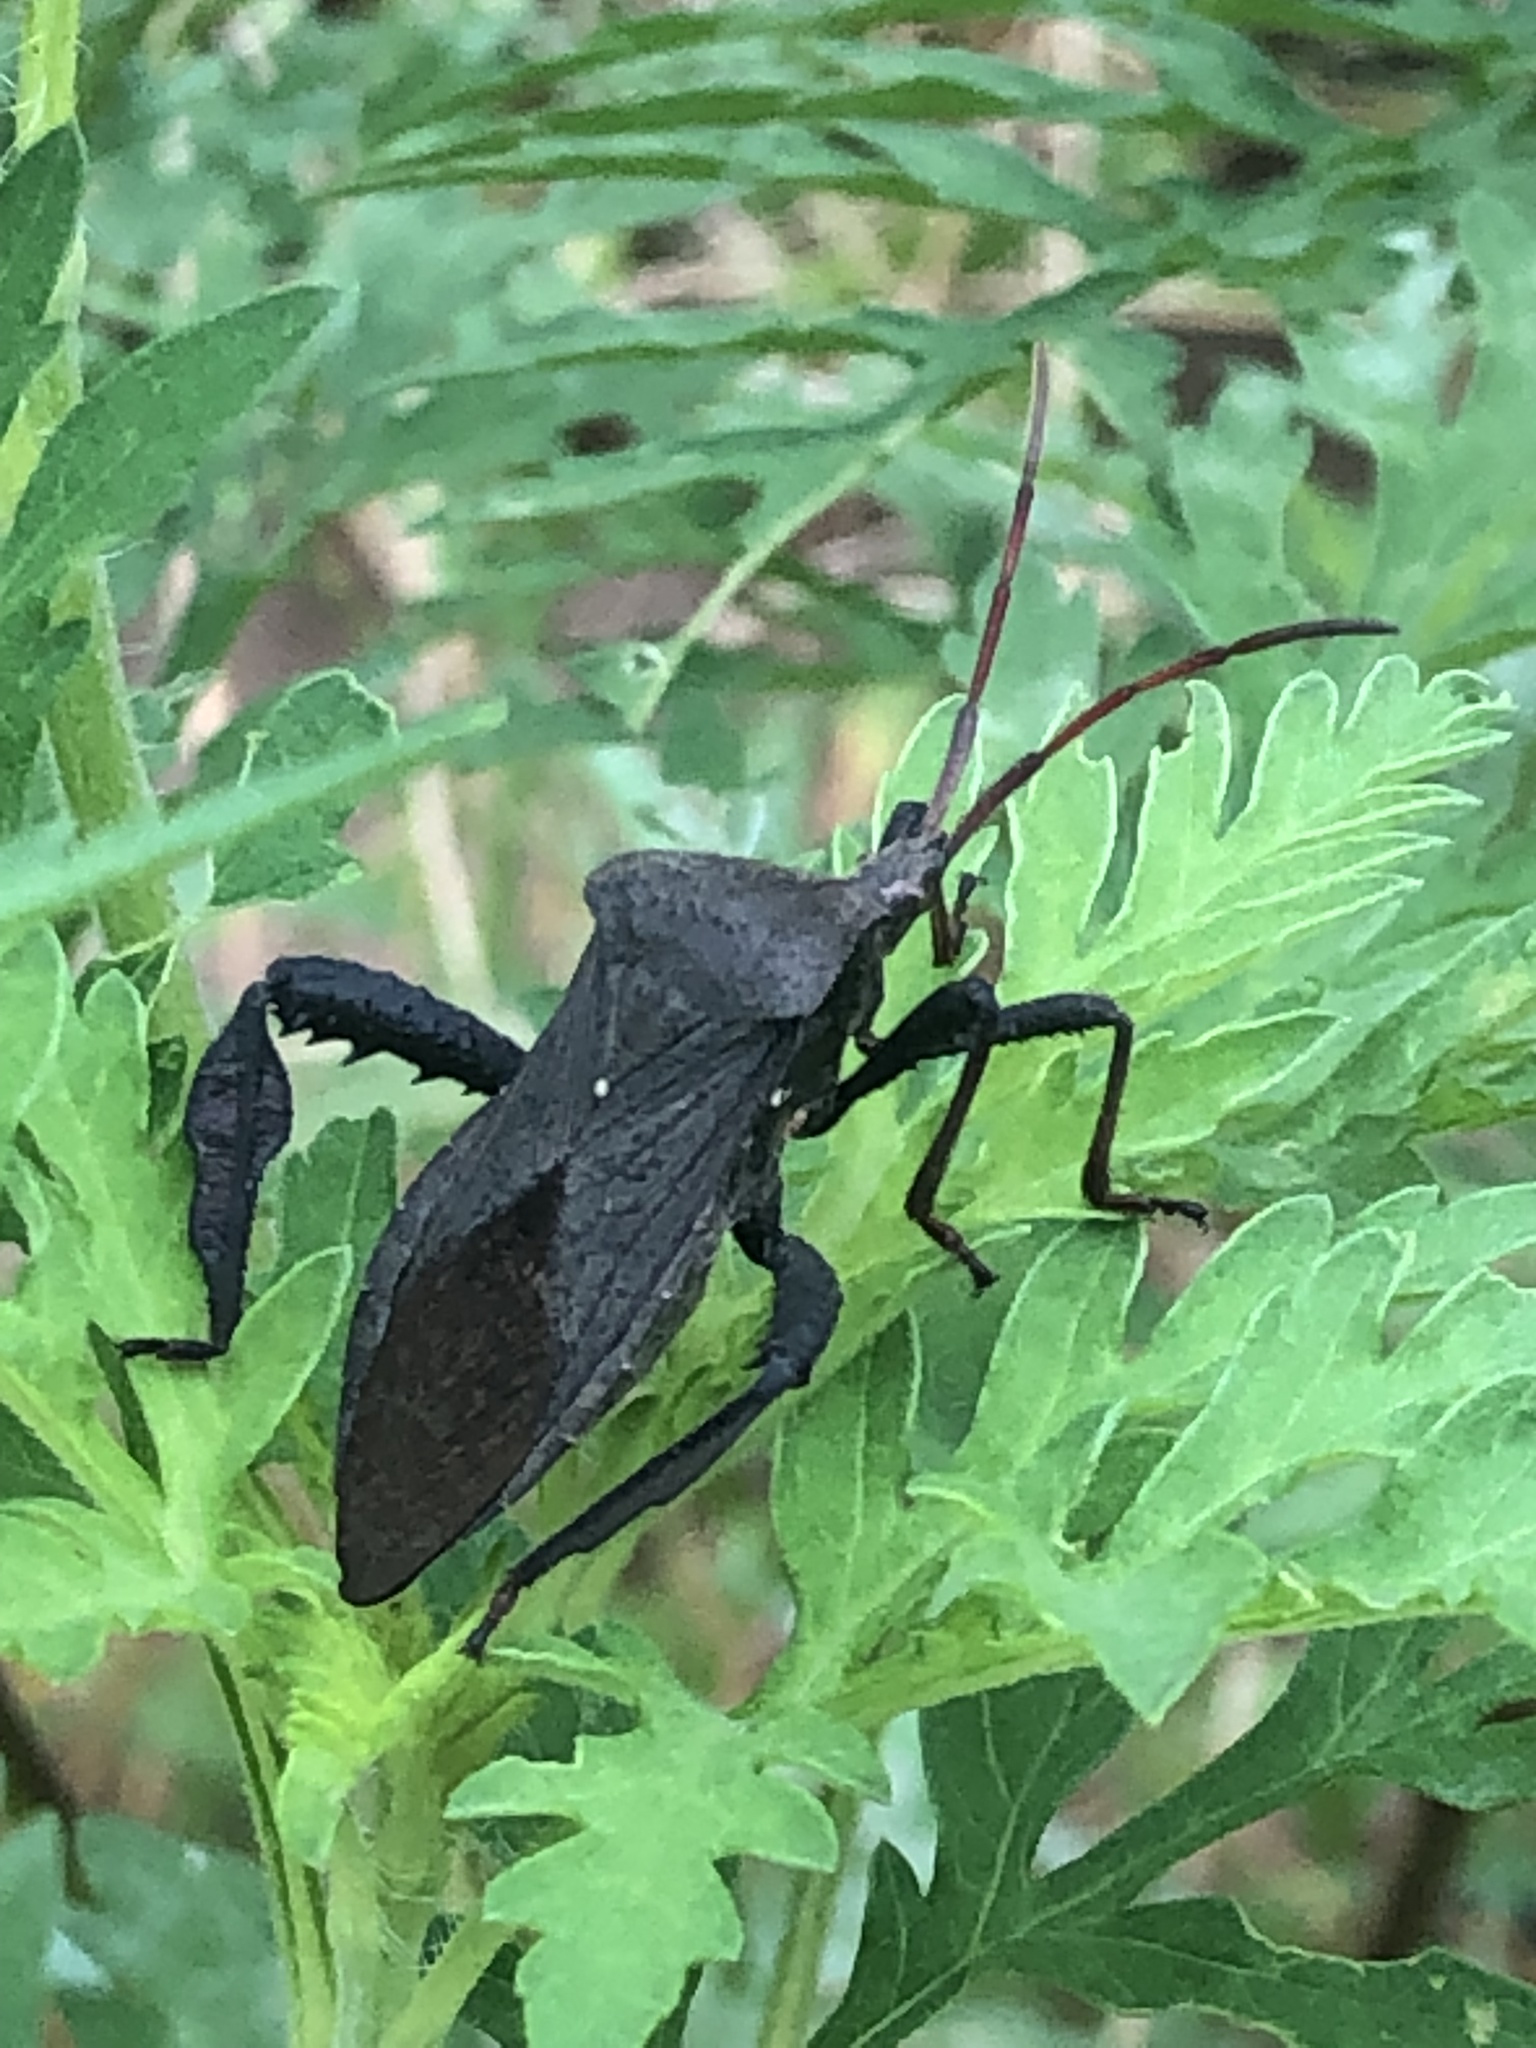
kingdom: Animalia
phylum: Arthropoda
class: Insecta
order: Hemiptera
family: Coreidae
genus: Acanthocephala
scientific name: Acanthocephala femorata
